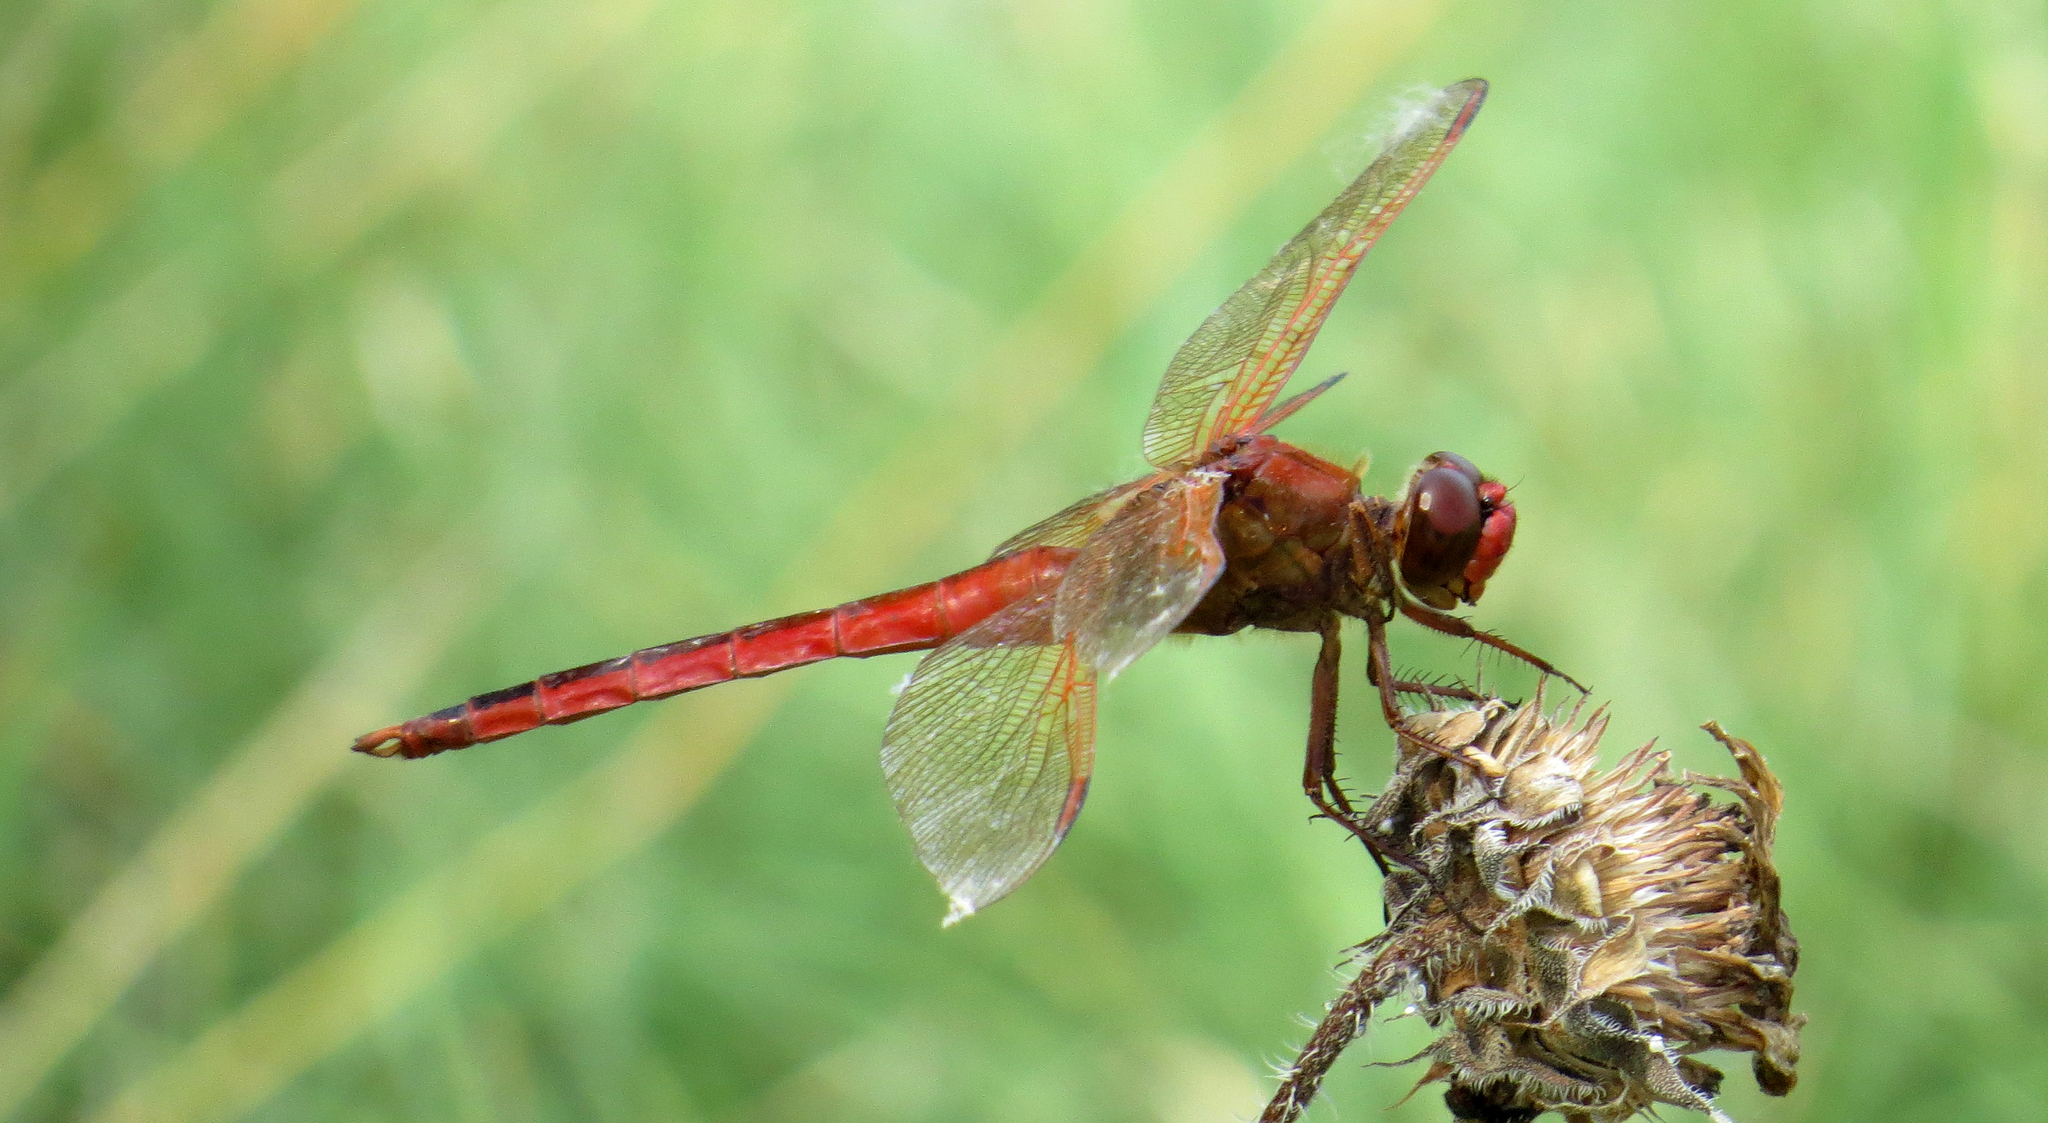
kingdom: Animalia
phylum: Arthropoda
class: Insecta
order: Odonata
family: Libellulidae
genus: Libellula
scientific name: Libellula needhami
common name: Needham's skimmer
